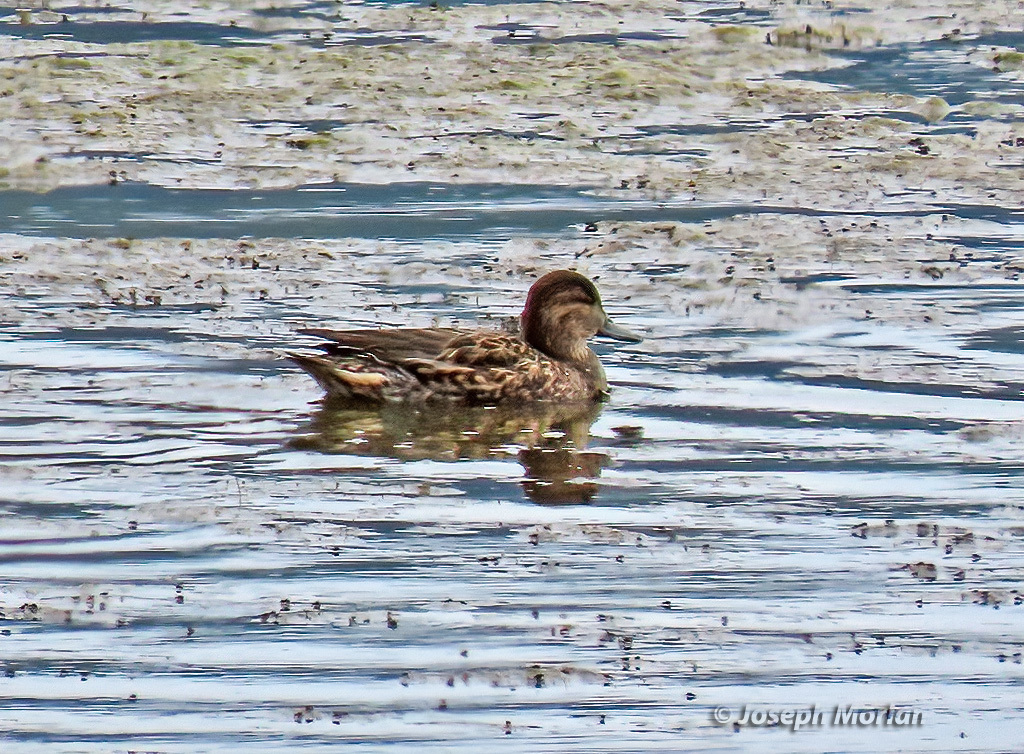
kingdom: Animalia
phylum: Chordata
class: Aves
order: Anseriformes
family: Anatidae
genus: Anas
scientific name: Anas crecca
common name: Eurasian teal
